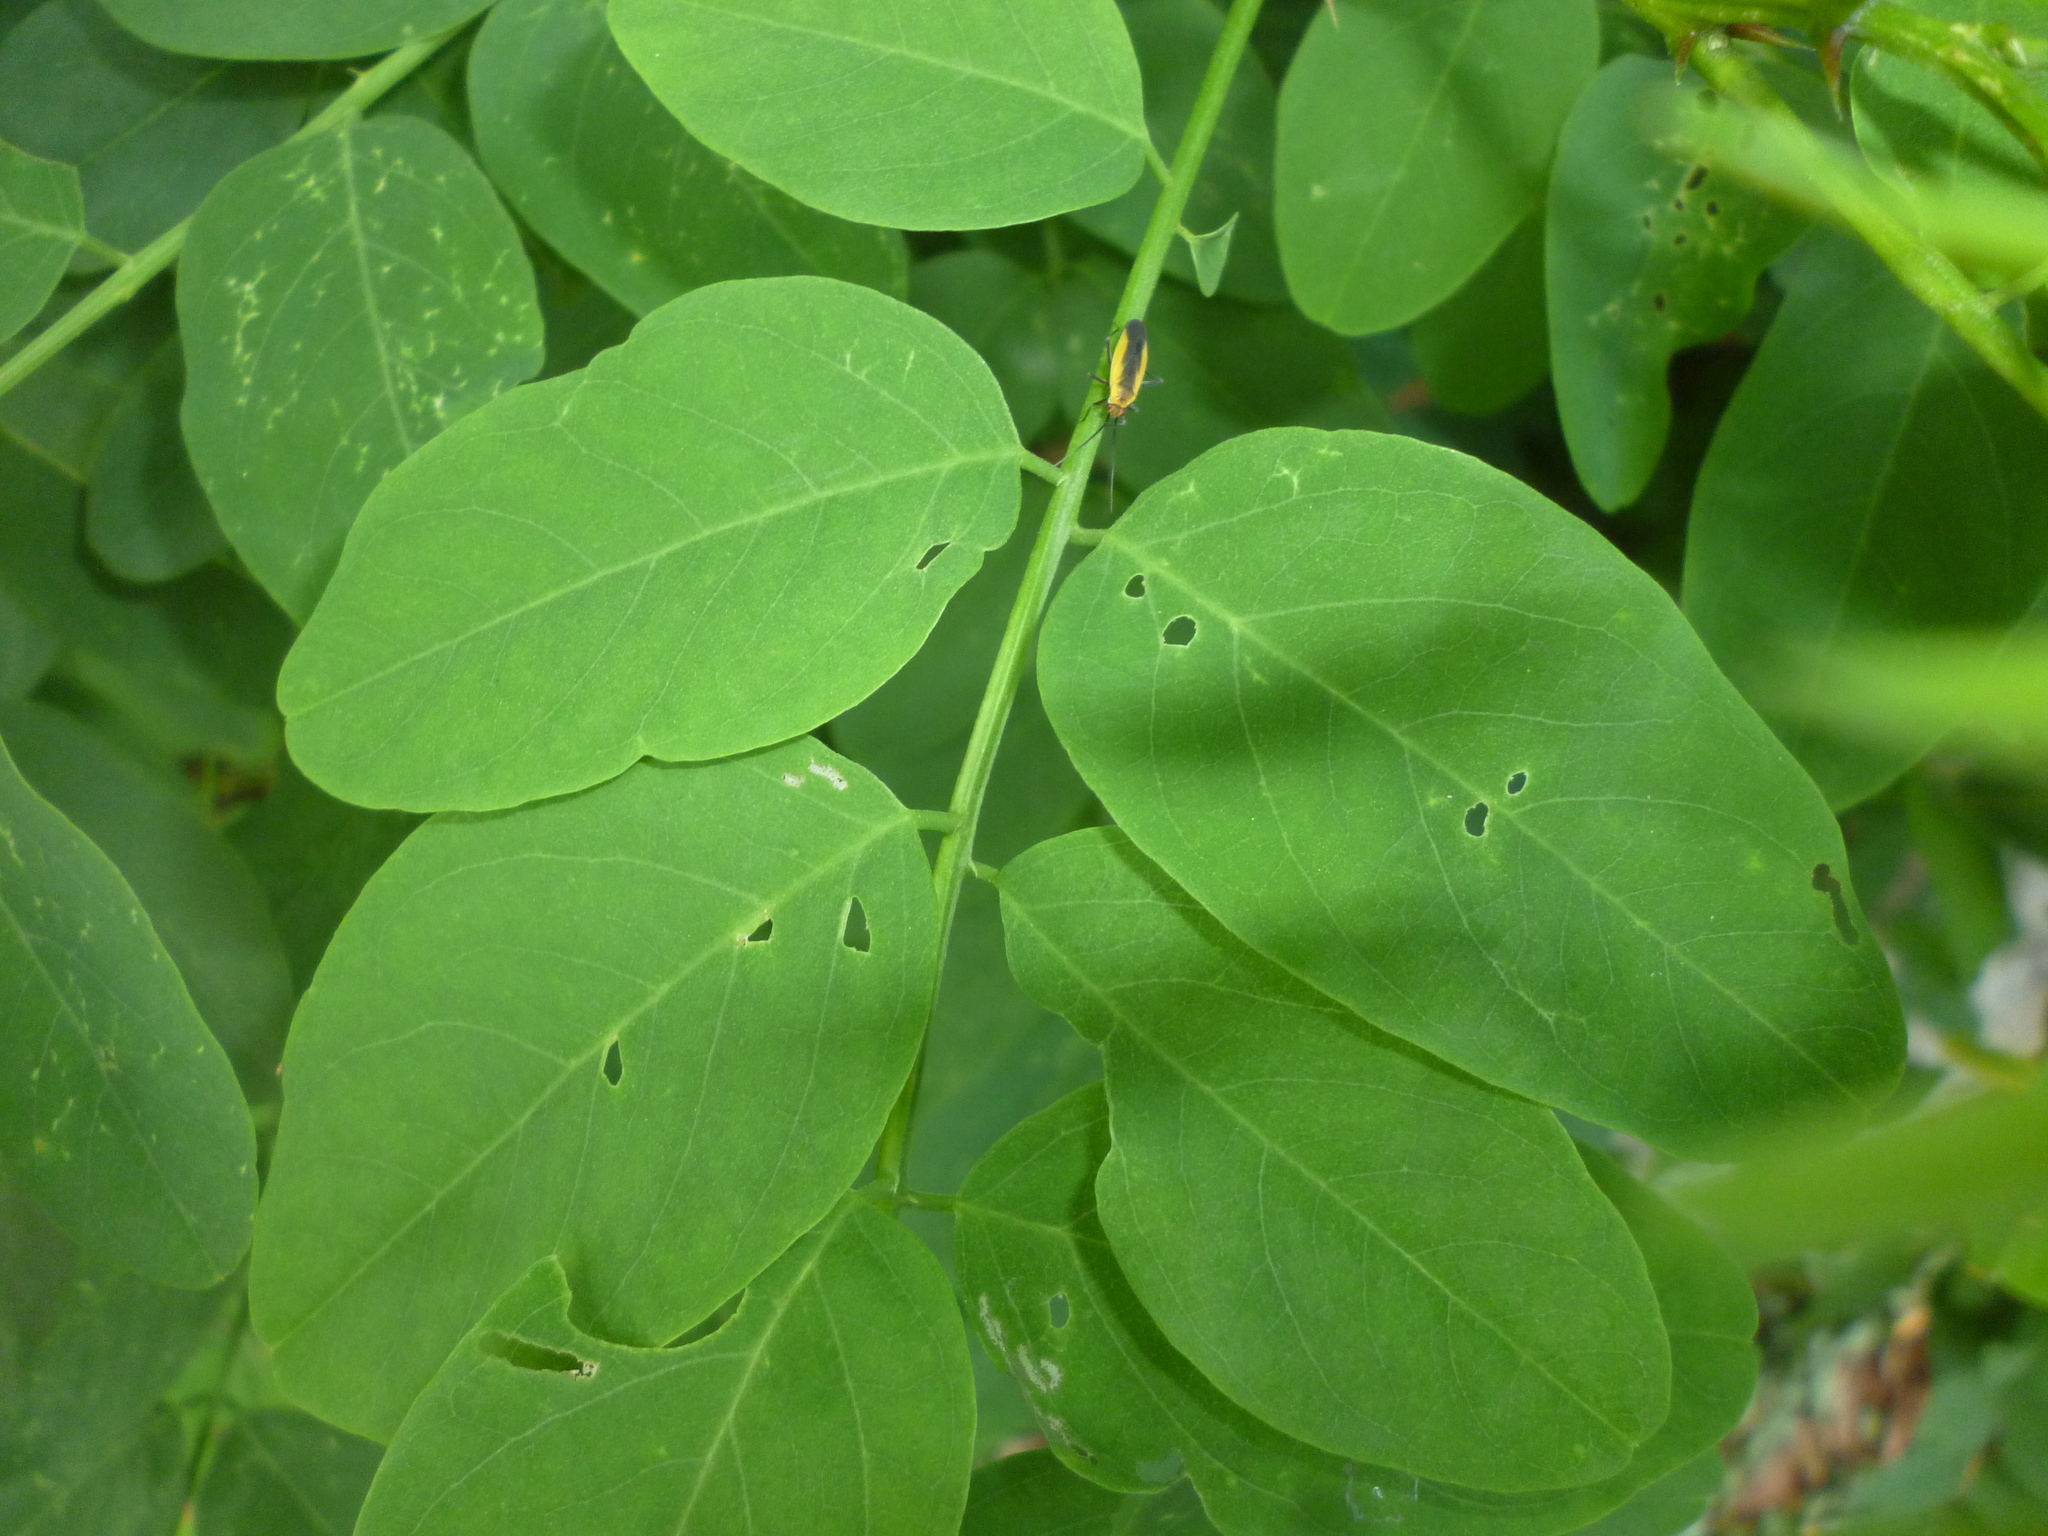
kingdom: Plantae
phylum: Tracheophyta
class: Magnoliopsida
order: Fabales
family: Fabaceae
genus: Robinia
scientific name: Robinia pseudoacacia
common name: Black locust
